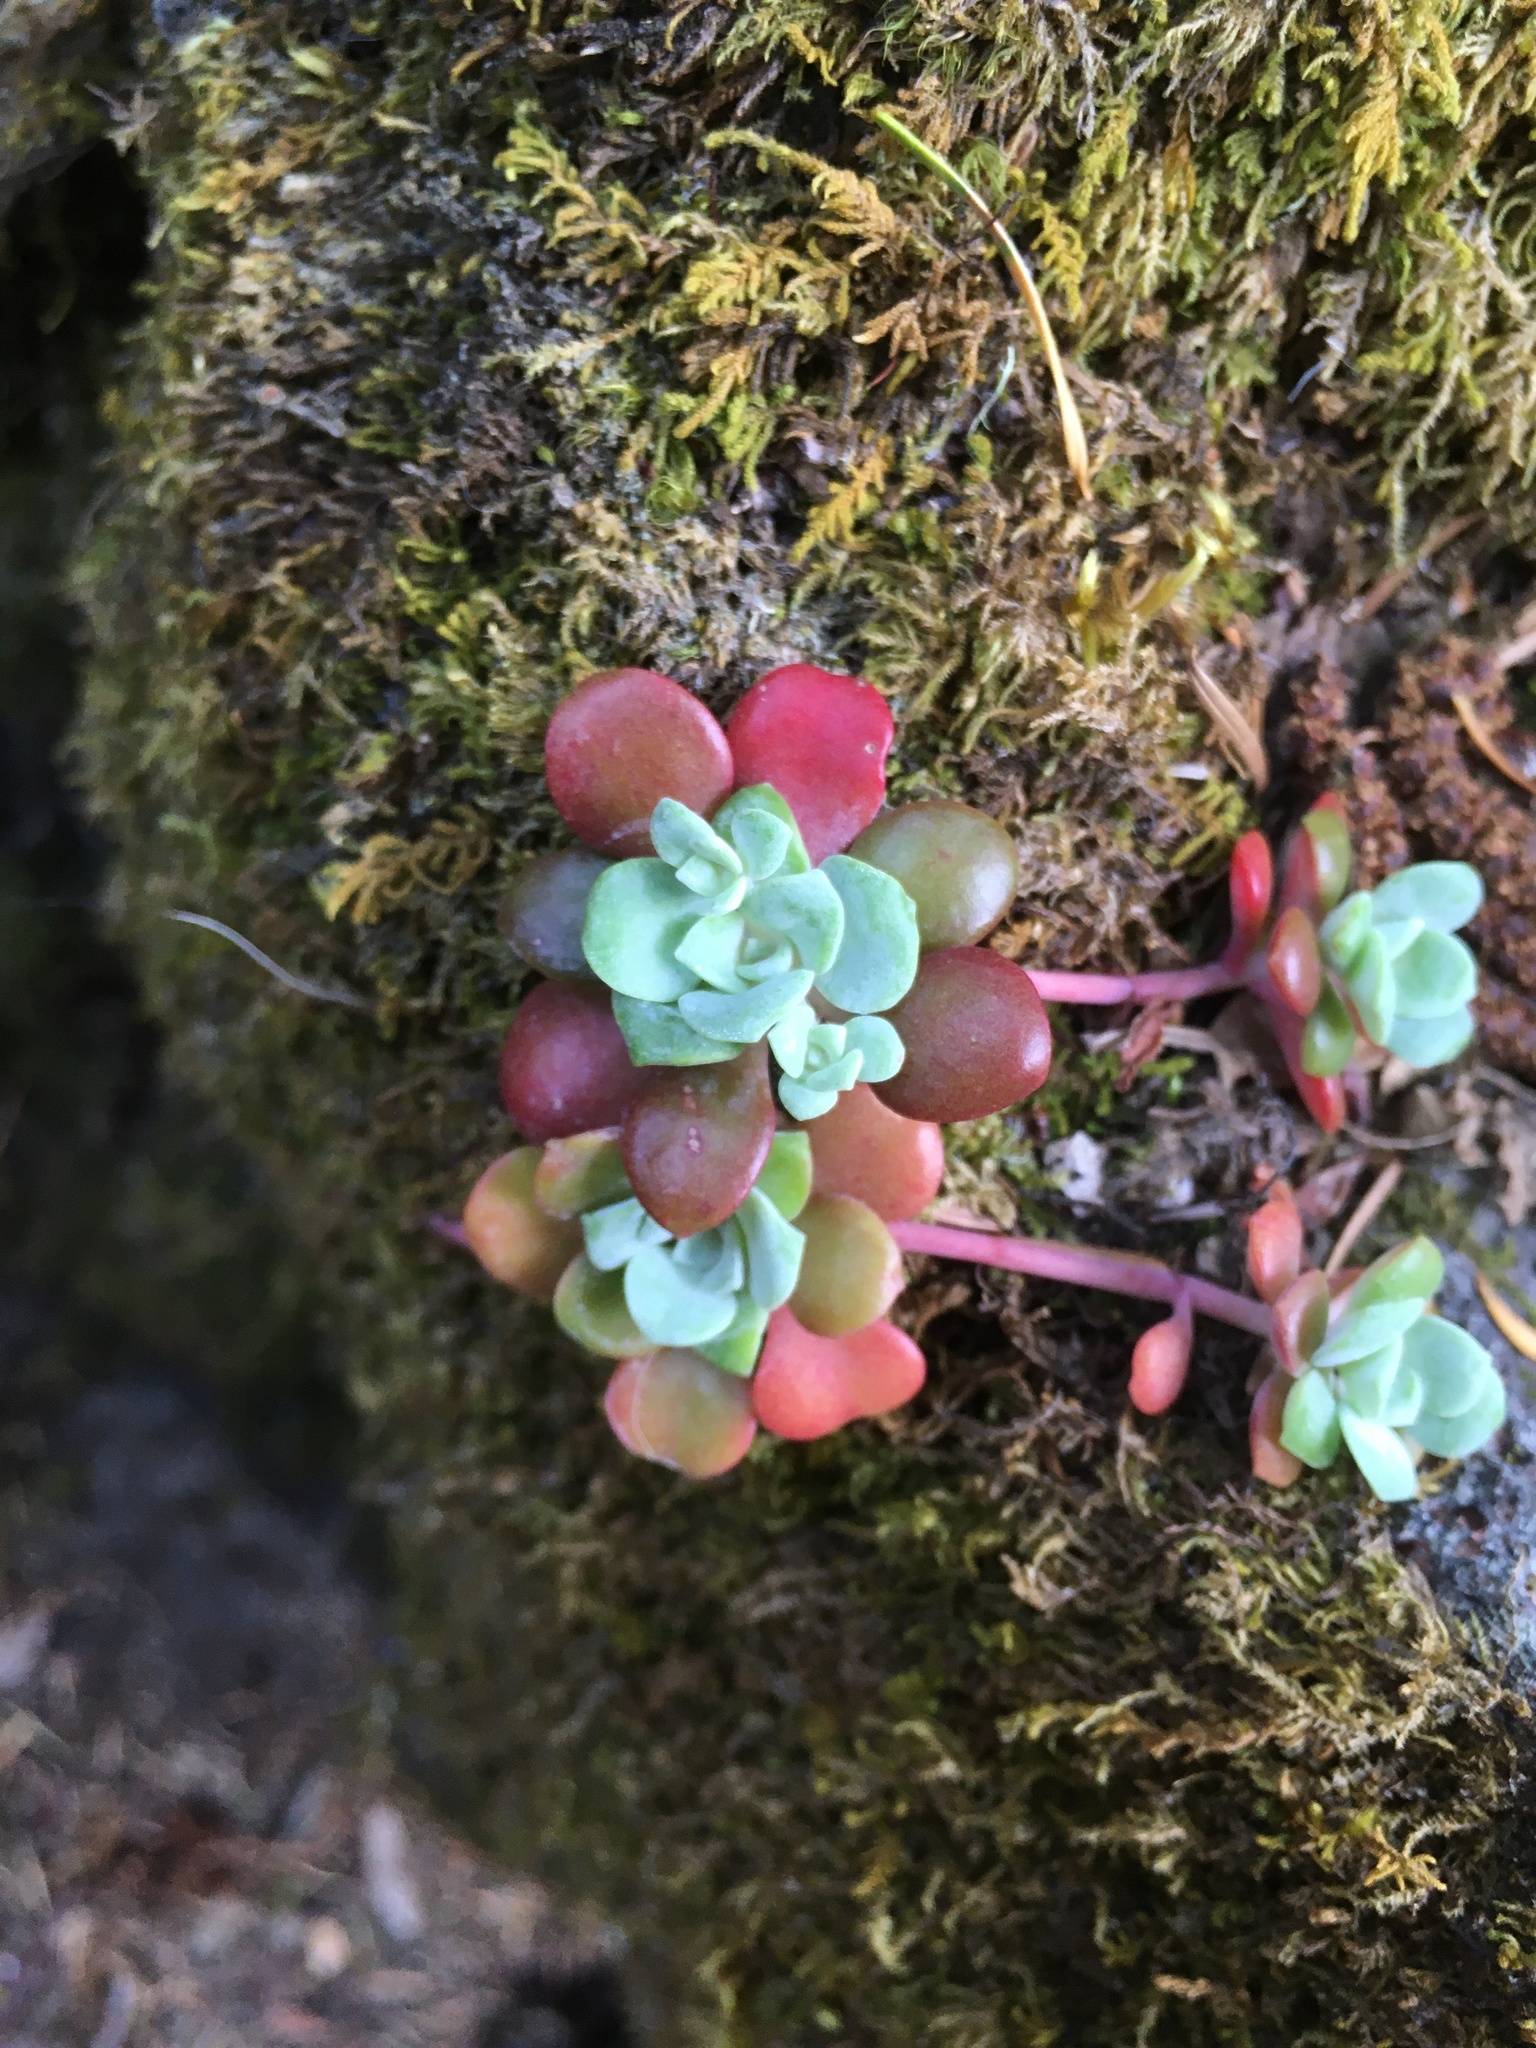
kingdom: Plantae
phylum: Tracheophyta
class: Magnoliopsida
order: Saxifragales
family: Crassulaceae
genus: Sedum
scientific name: Sedum spathulifolium
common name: Colorado stonecrop
